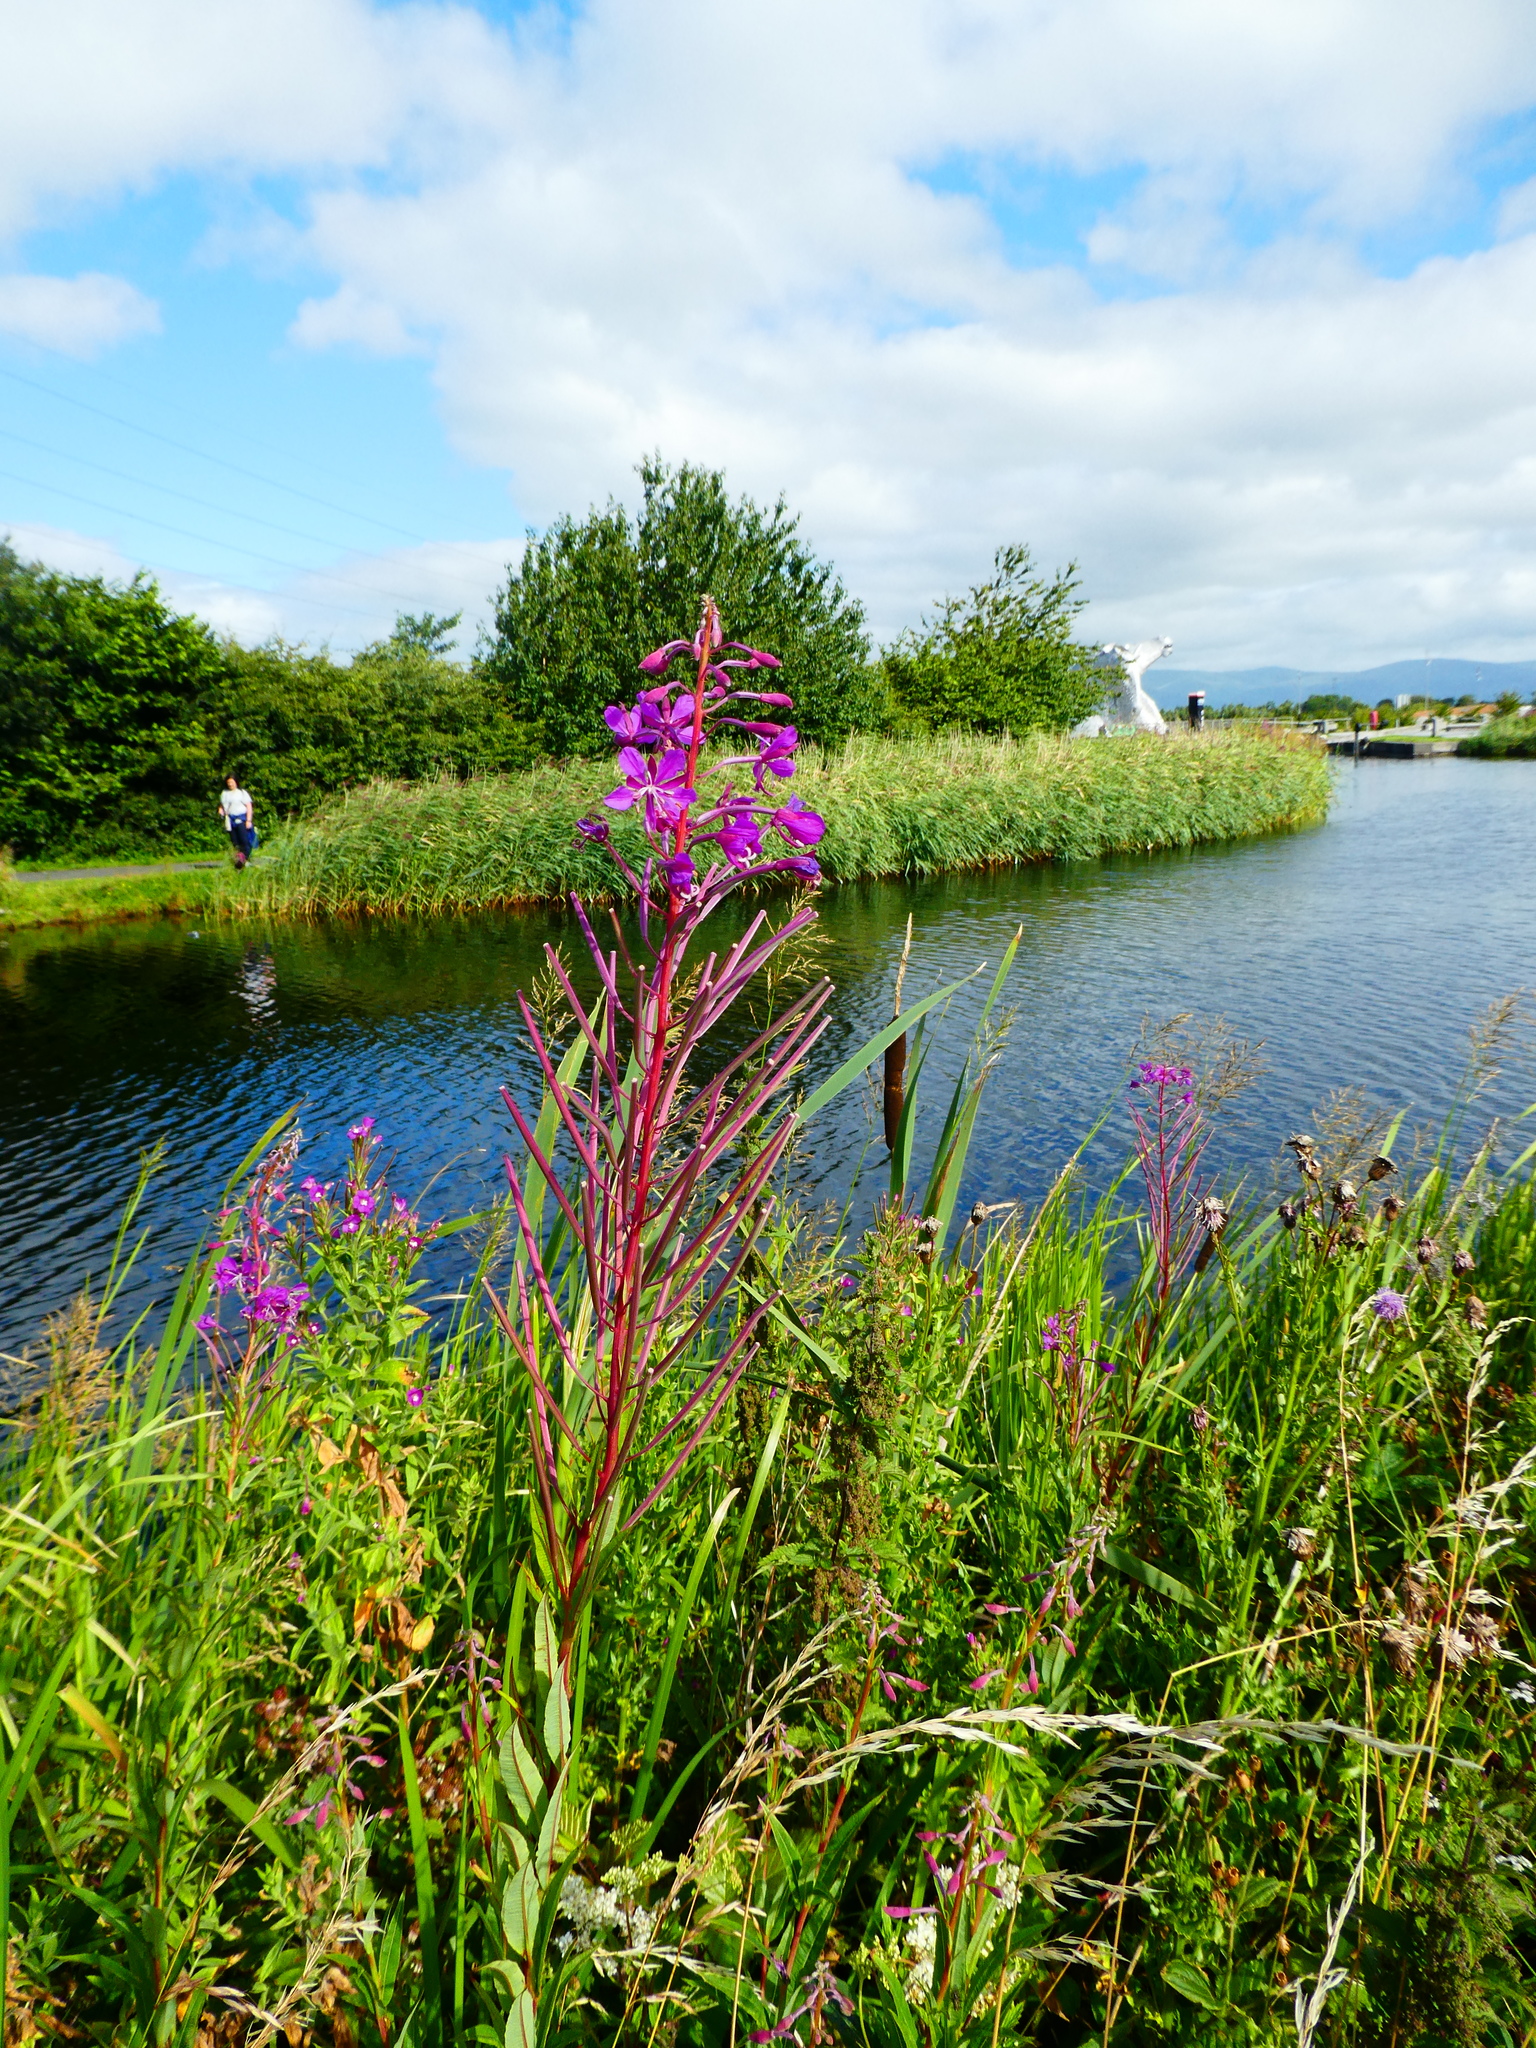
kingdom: Plantae
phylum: Tracheophyta
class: Magnoliopsida
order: Myrtales
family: Onagraceae
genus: Chamaenerion
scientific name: Chamaenerion angustifolium
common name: Fireweed
